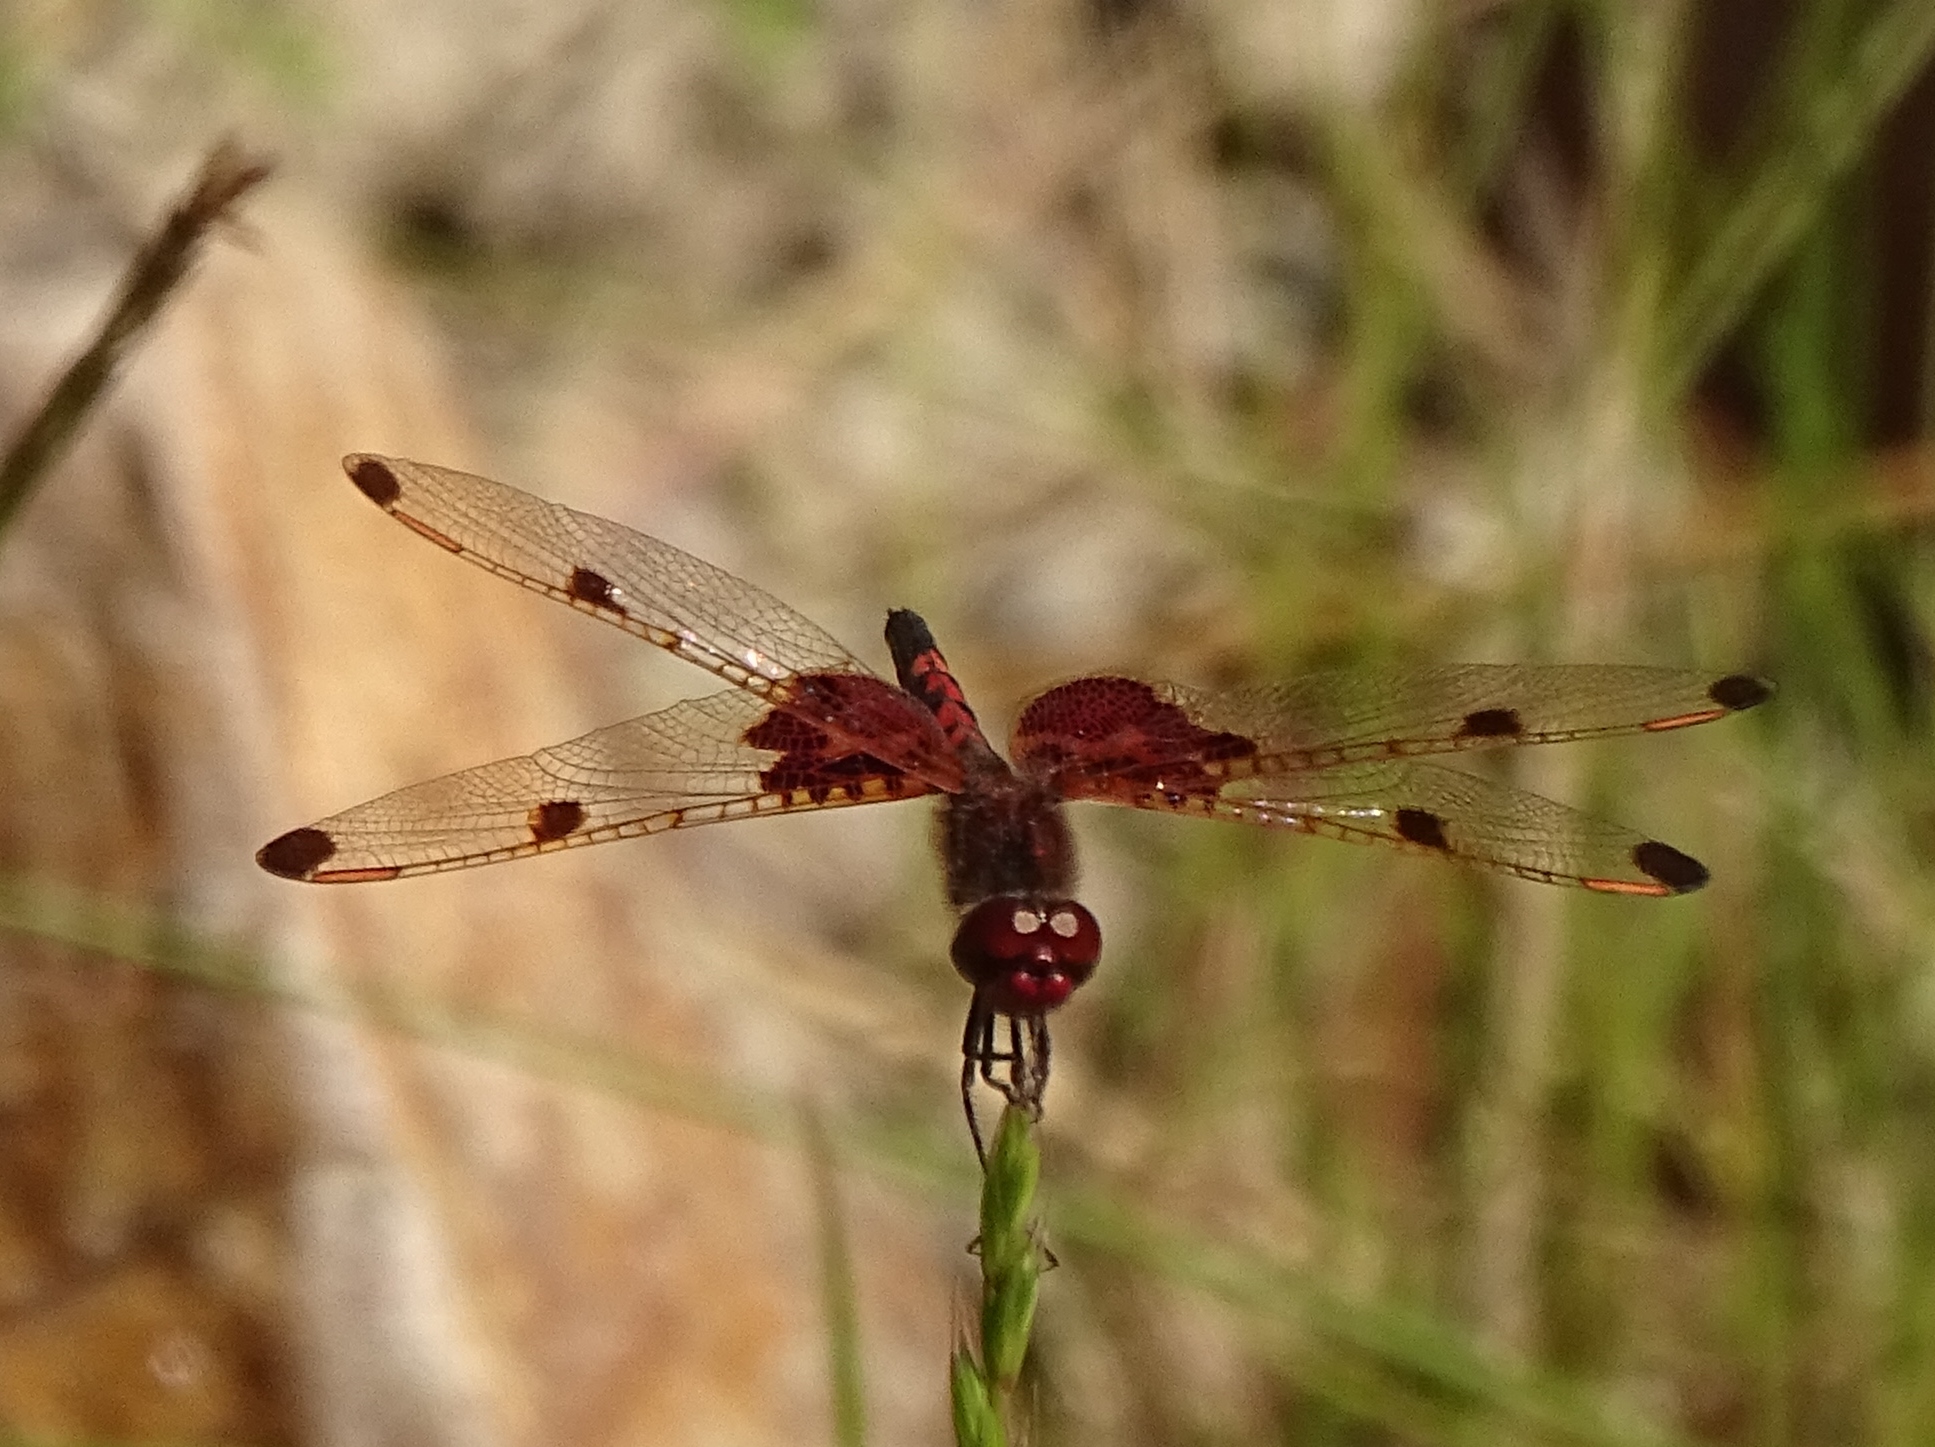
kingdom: Animalia
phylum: Arthropoda
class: Insecta
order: Odonata
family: Libellulidae
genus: Celithemis
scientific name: Celithemis elisa
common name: Calico pennant
